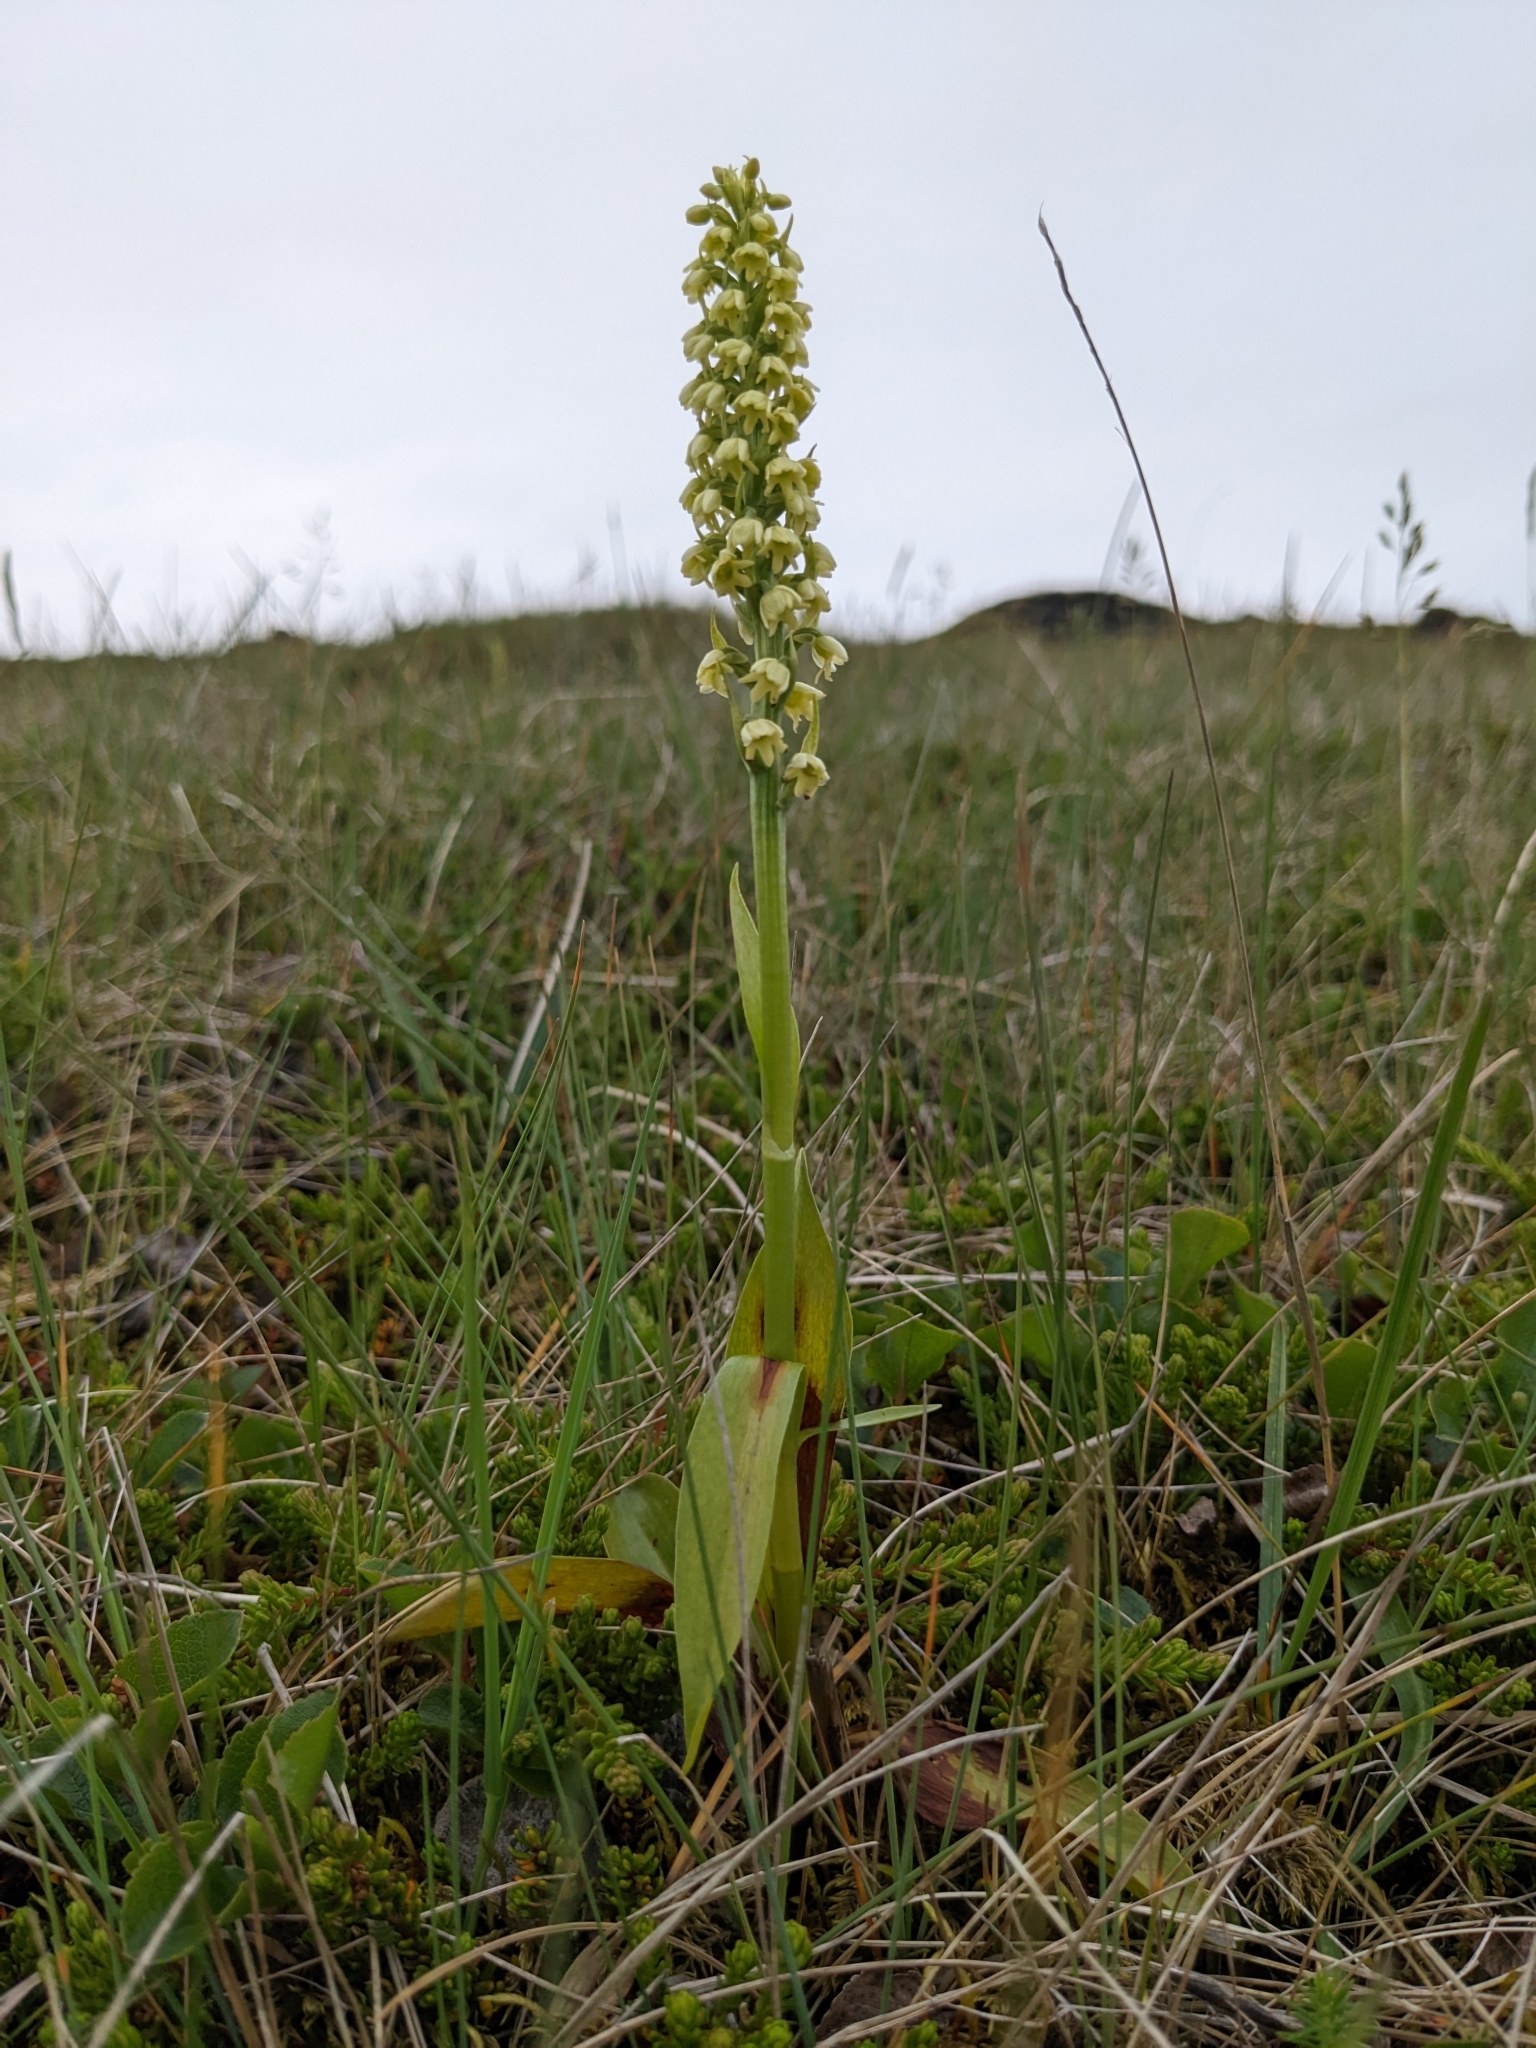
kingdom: Plantae
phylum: Tracheophyta
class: Liliopsida
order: Asparagales
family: Orchidaceae
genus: Pseudorchis
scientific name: Pseudorchis albida
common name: Small-white orchid
